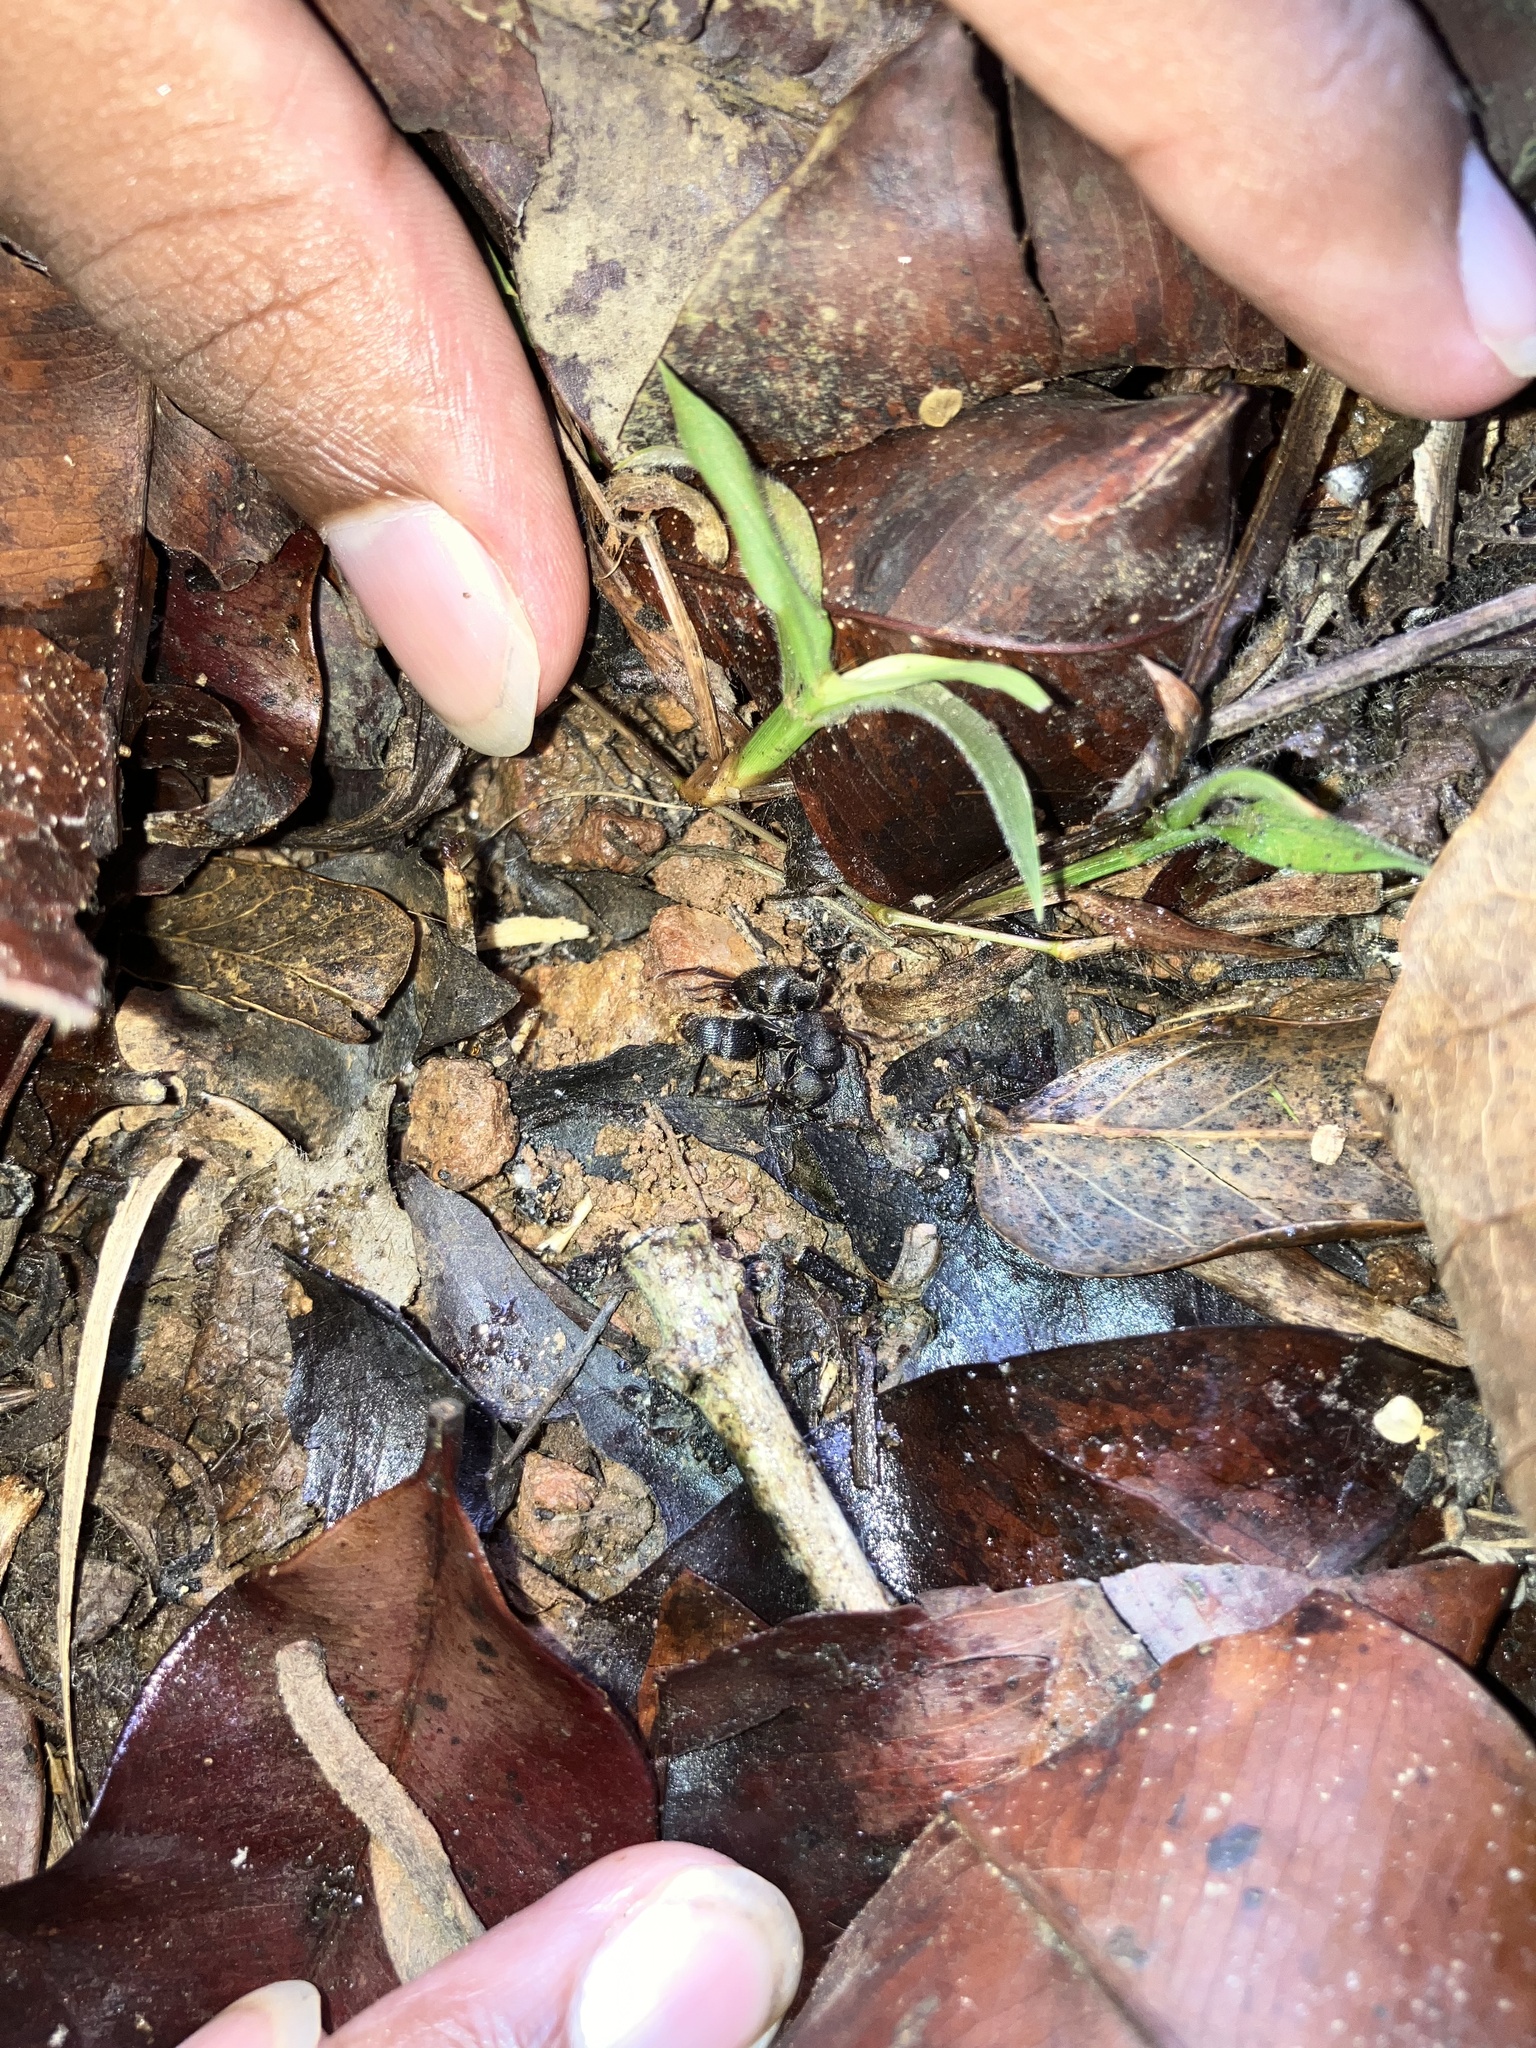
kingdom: Animalia
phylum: Arthropoda
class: Insecta
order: Hymenoptera
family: Formicidae
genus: Pseudoneoponera
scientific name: Pseudoneoponera rufipes
